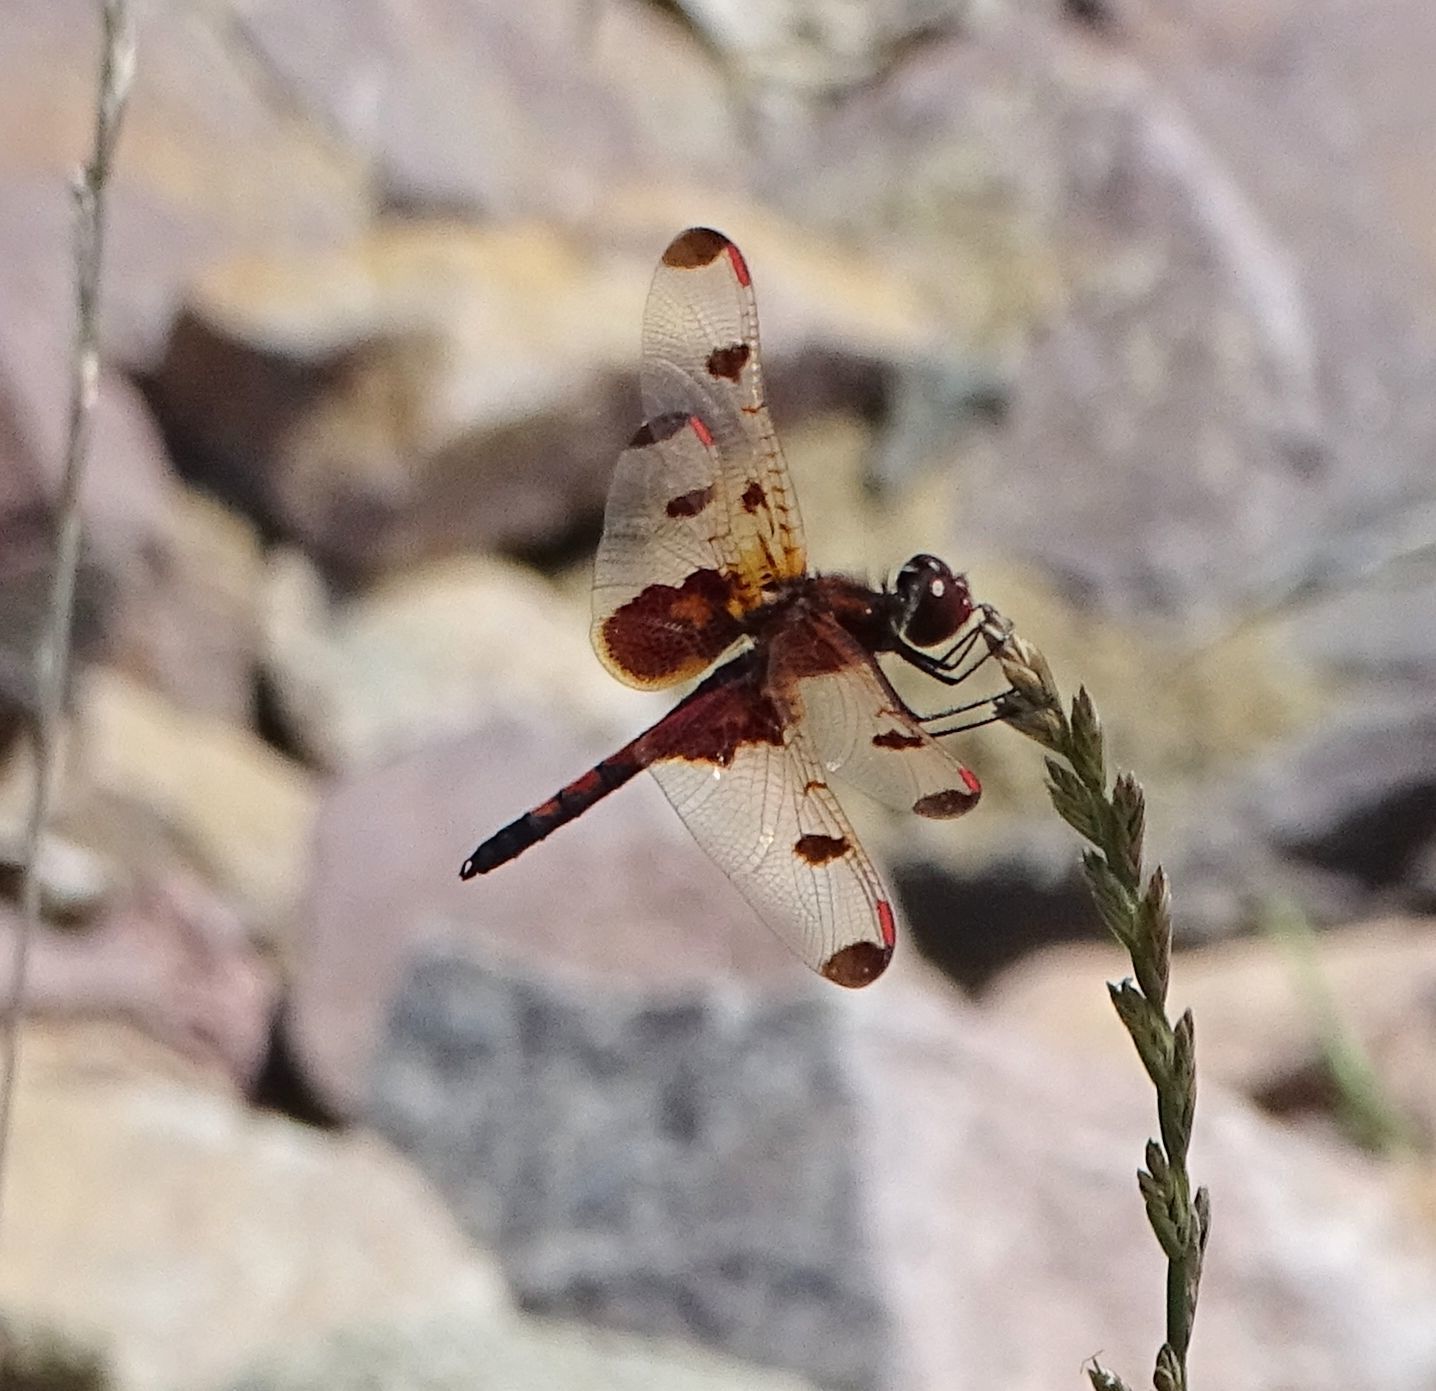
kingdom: Animalia
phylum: Arthropoda
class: Insecta
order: Odonata
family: Libellulidae
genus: Celithemis
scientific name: Celithemis elisa
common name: Calico pennant
